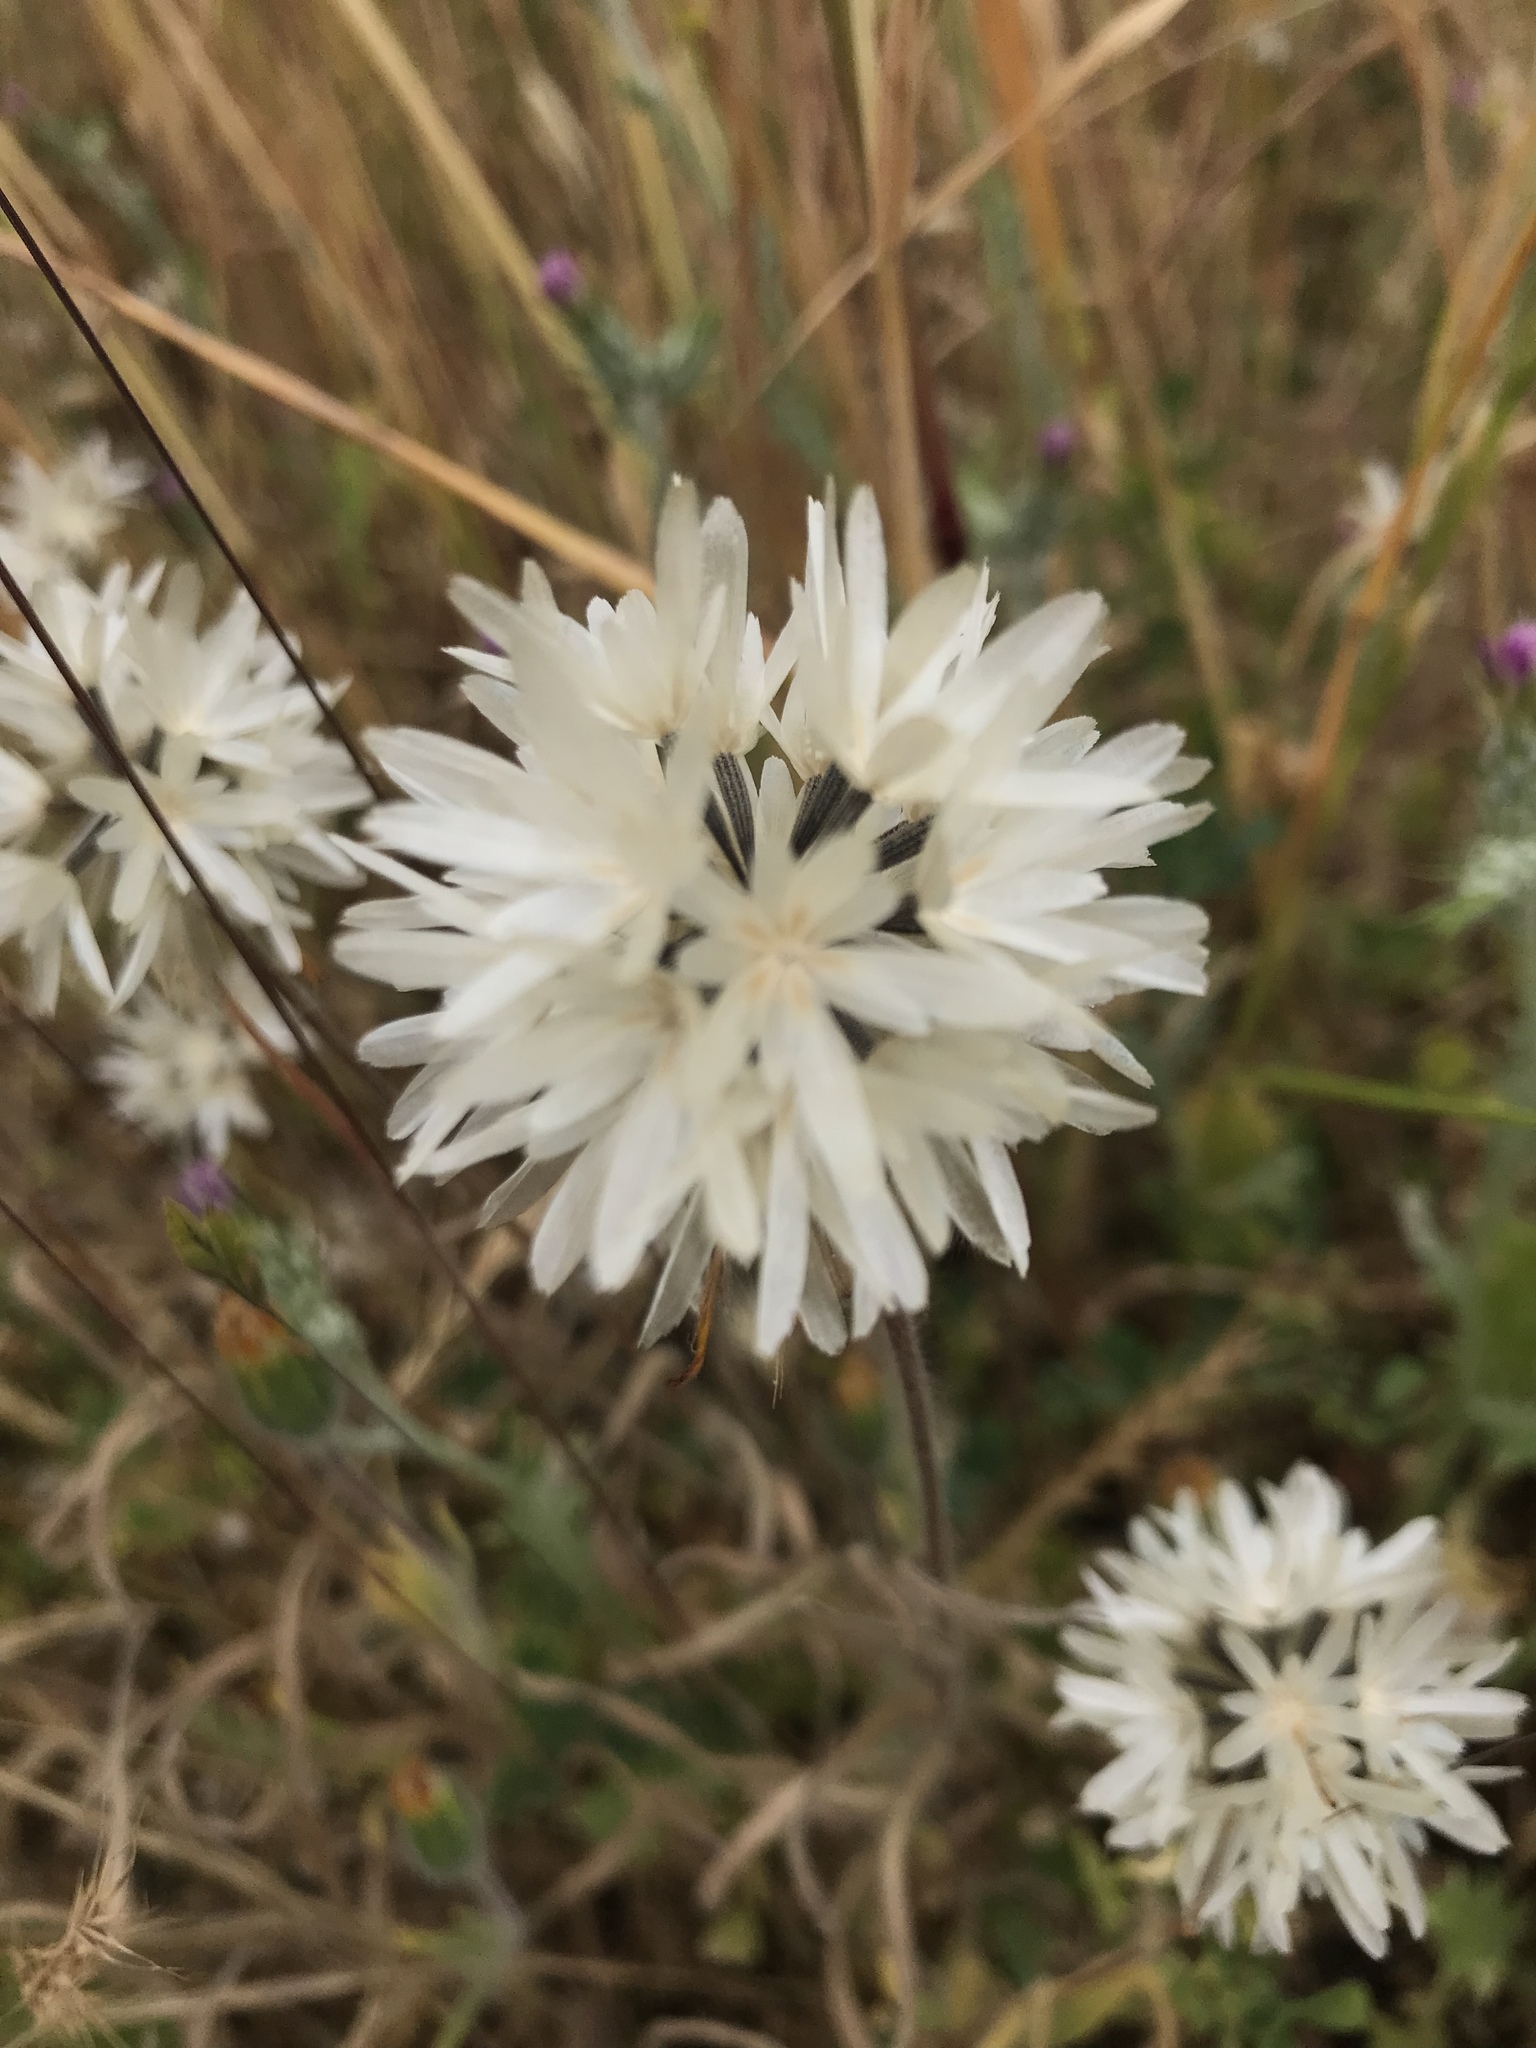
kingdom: Plantae
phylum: Tracheophyta
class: Magnoliopsida
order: Asterales
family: Asteraceae
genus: Achyrachaena
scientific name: Achyrachaena mollis
